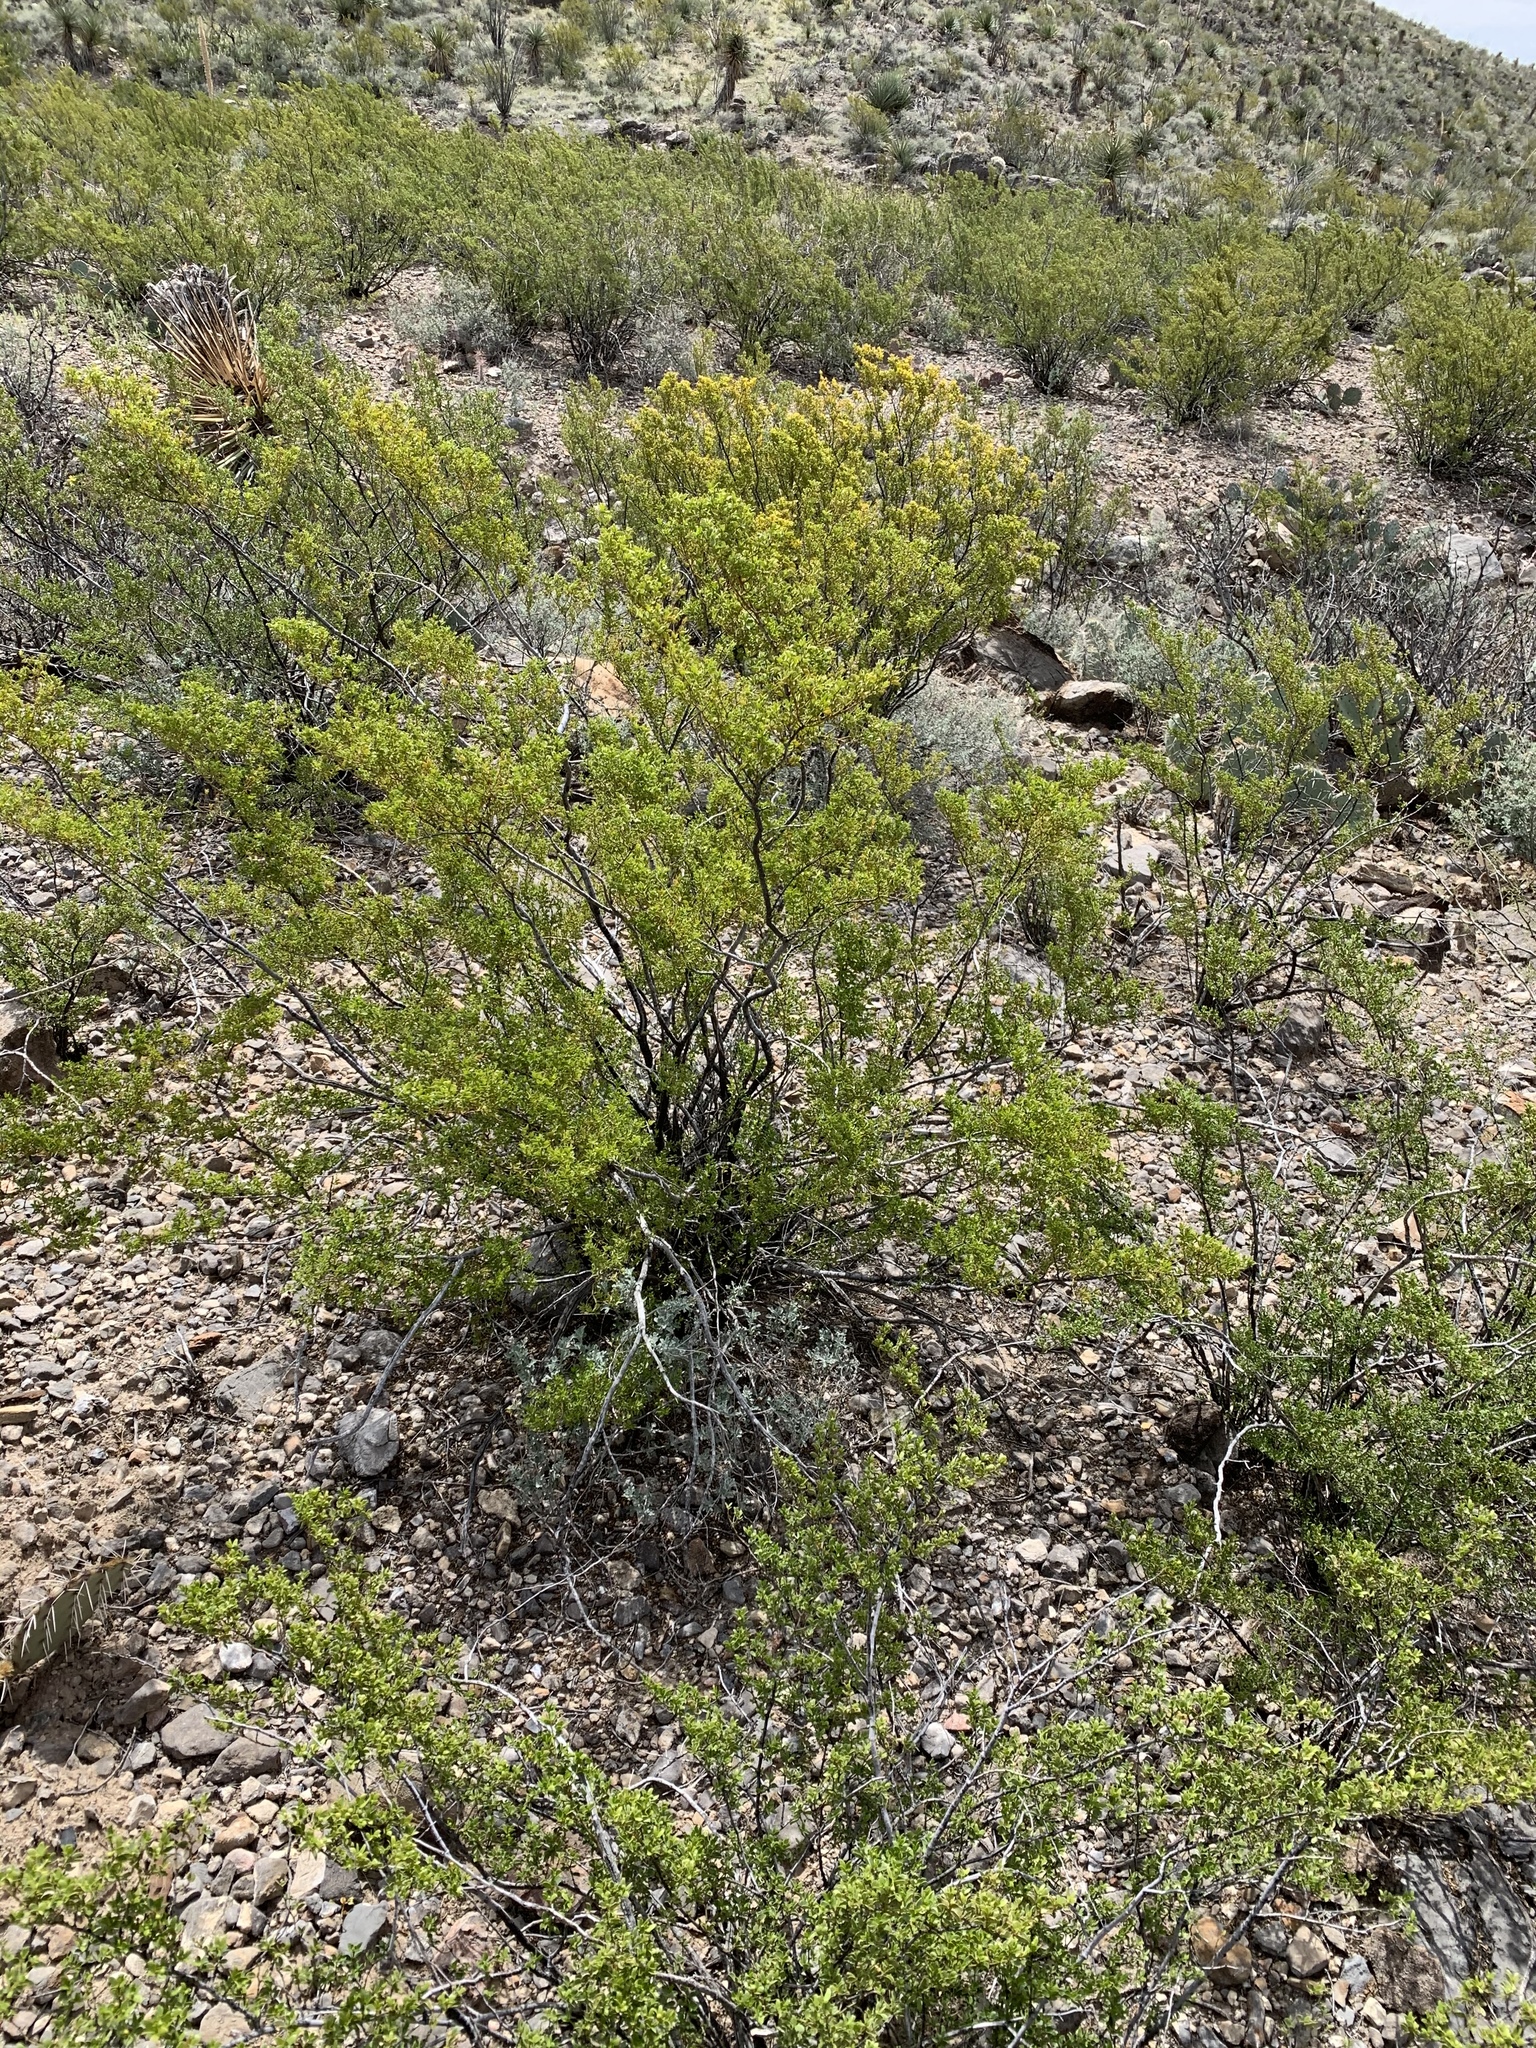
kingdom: Plantae
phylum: Tracheophyta
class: Magnoliopsida
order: Zygophyllales
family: Zygophyllaceae
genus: Larrea
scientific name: Larrea tridentata
